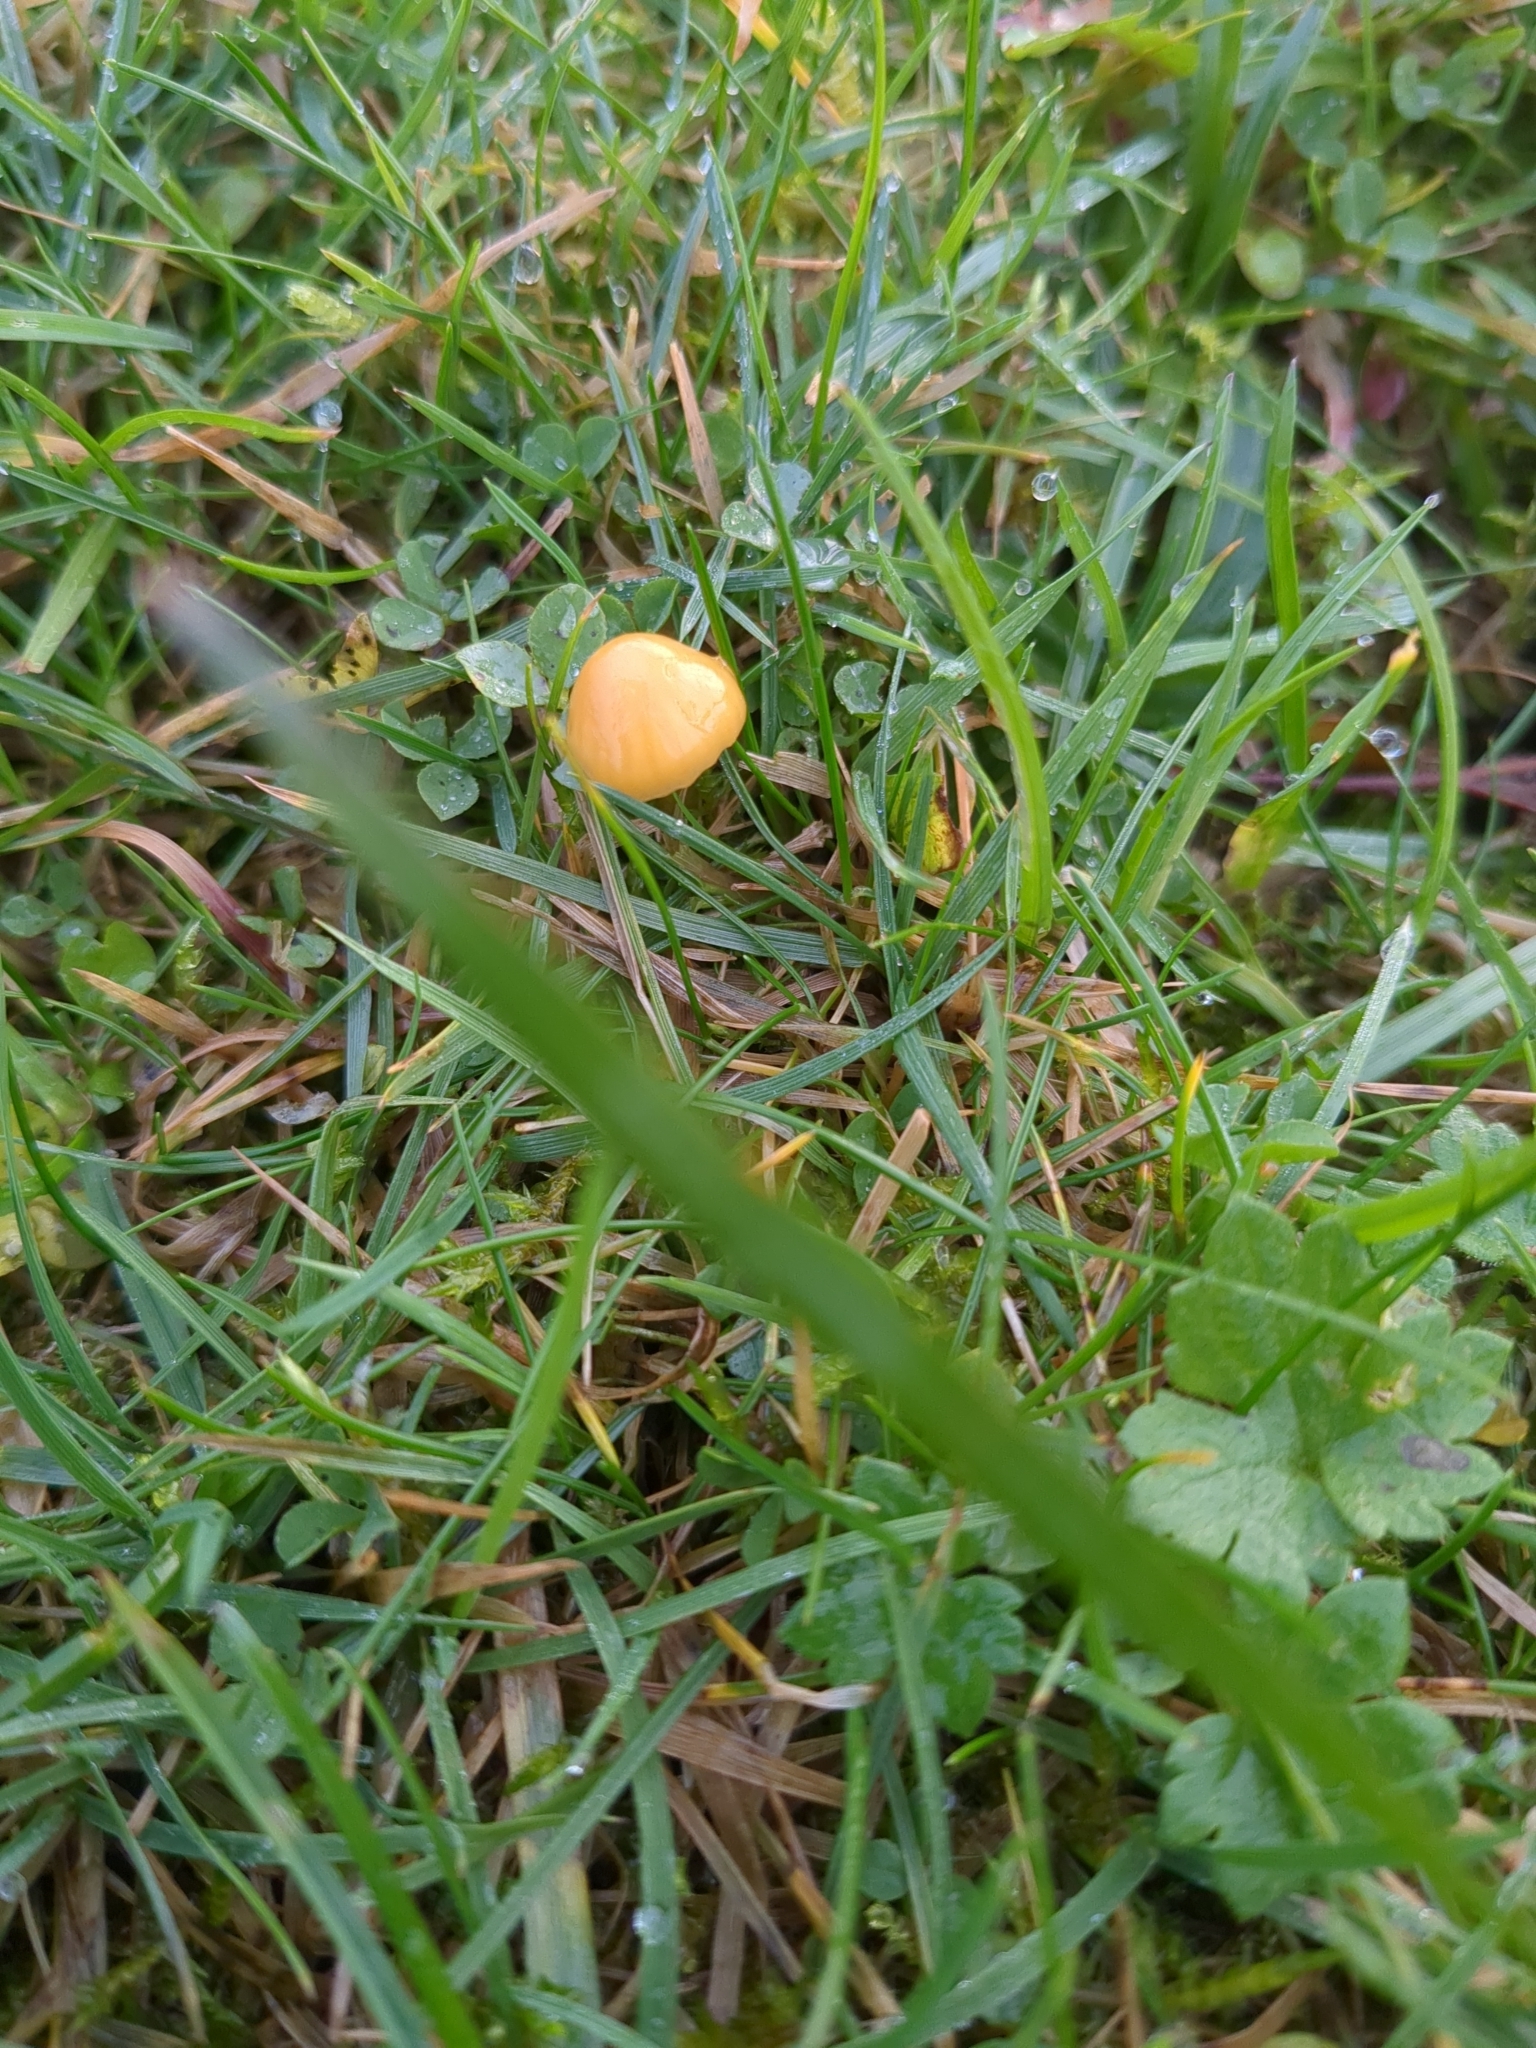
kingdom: Fungi
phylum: Basidiomycota
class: Agaricomycetes
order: Agaricales
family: Hygrophoraceae
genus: Gliophorus
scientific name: Gliophorus psittacinus
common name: Parrot wax-cap
